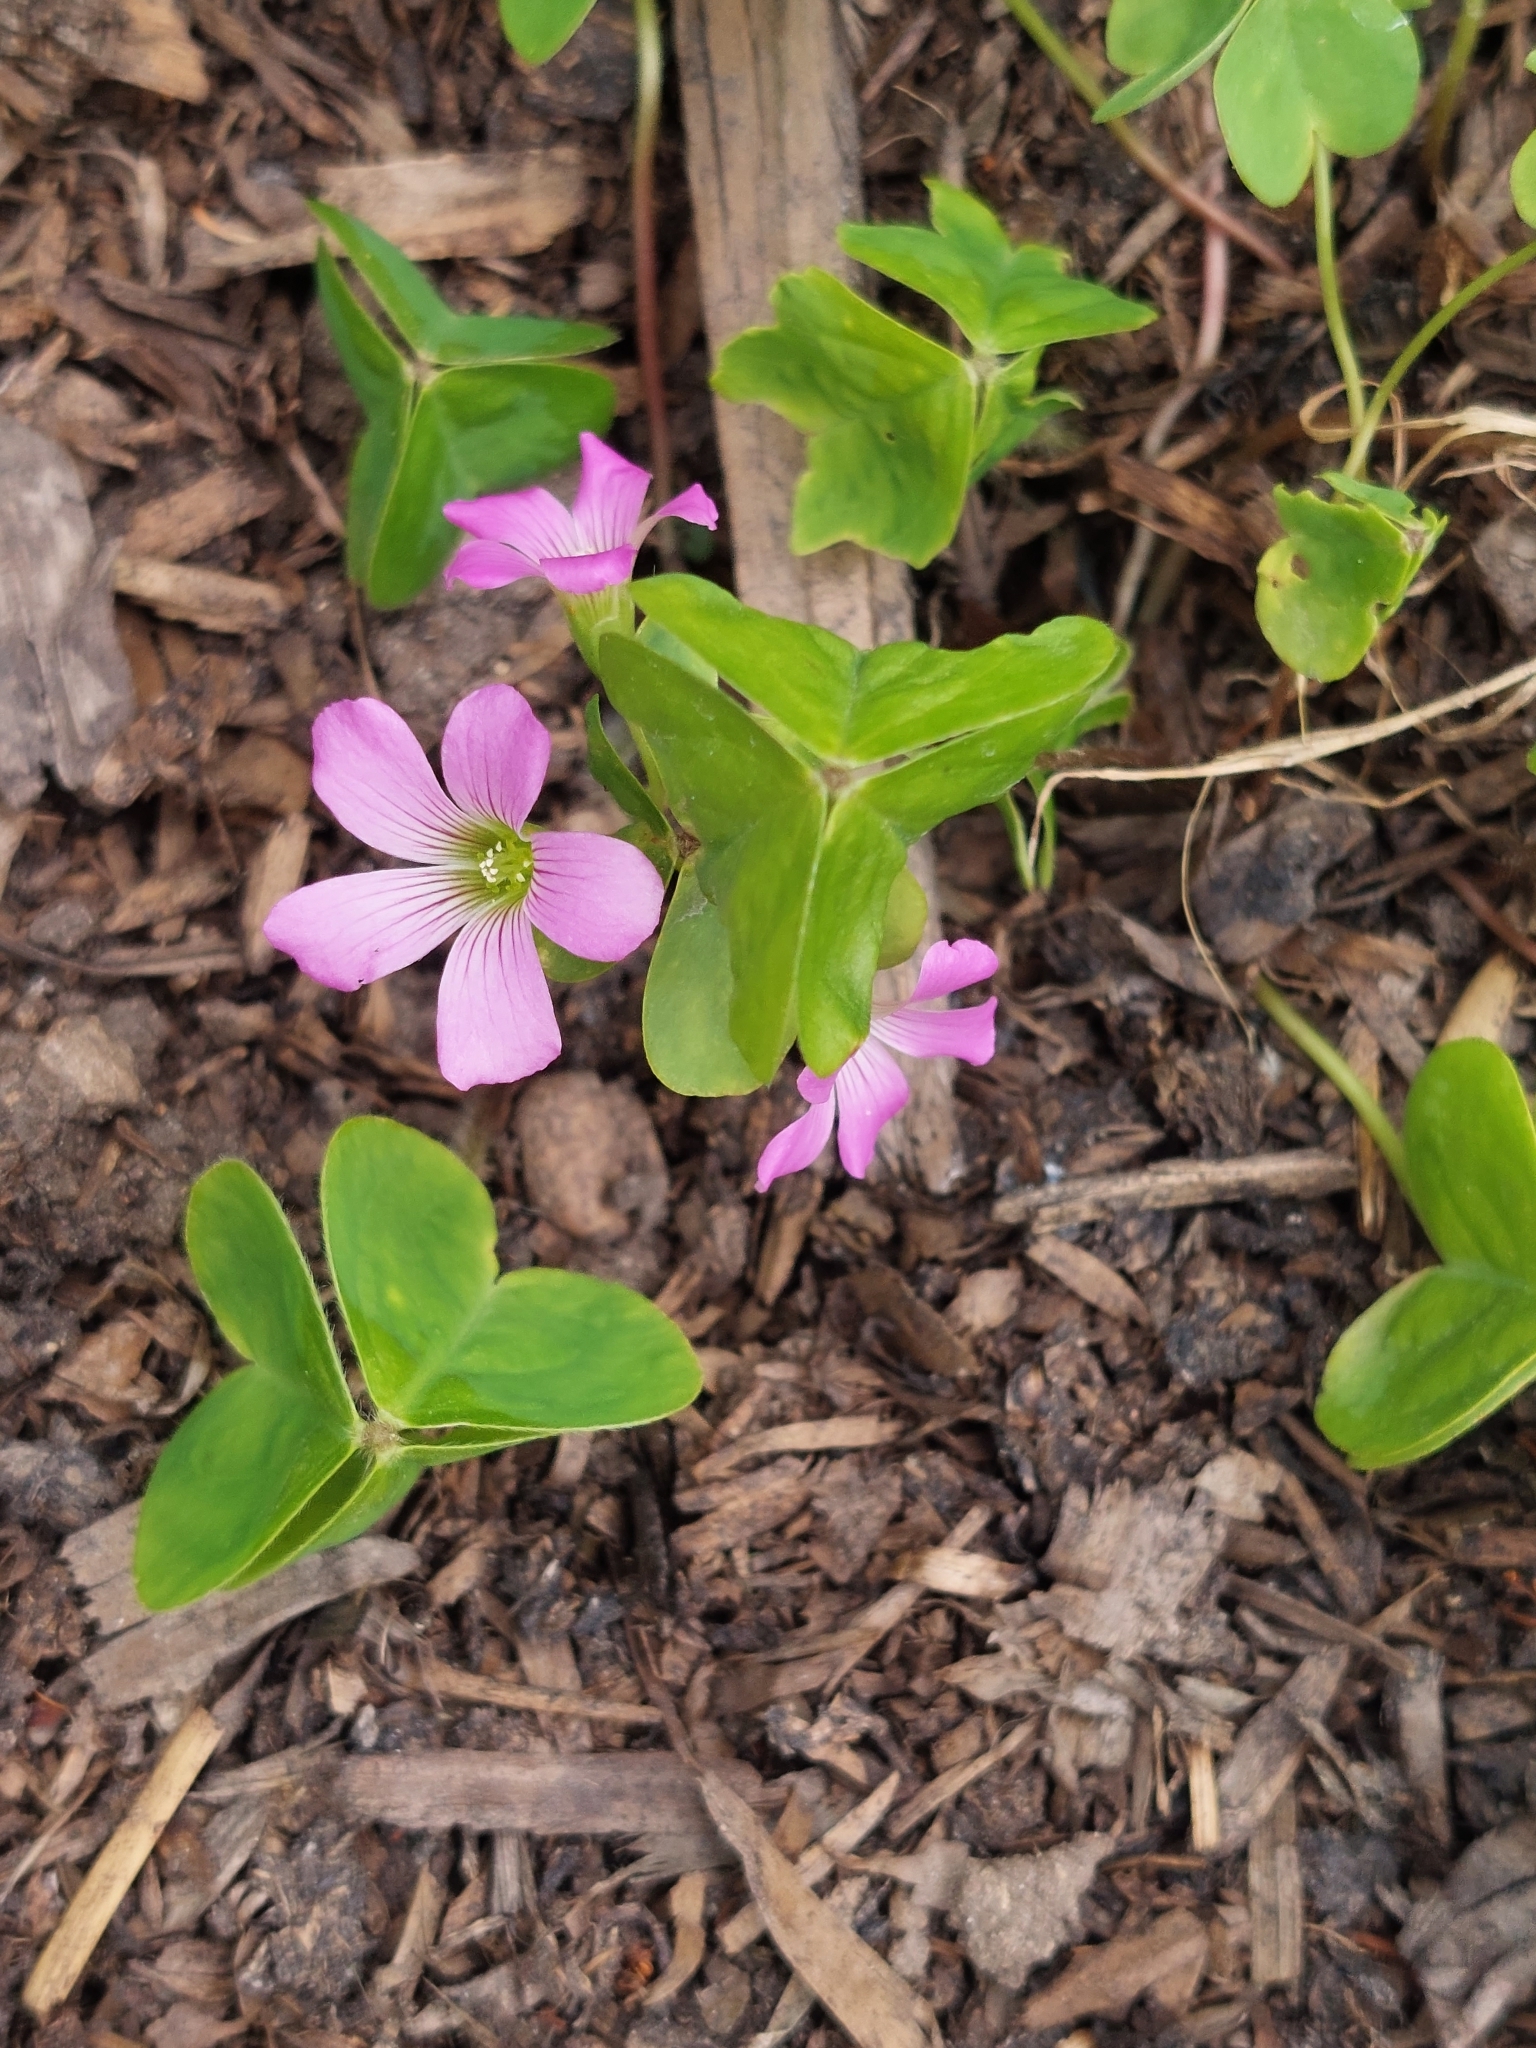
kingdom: Plantae
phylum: Tracheophyta
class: Magnoliopsida
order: Oxalidales
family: Oxalidaceae
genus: Oxalis
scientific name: Oxalis debilis
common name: Large-flowered pink-sorrel
